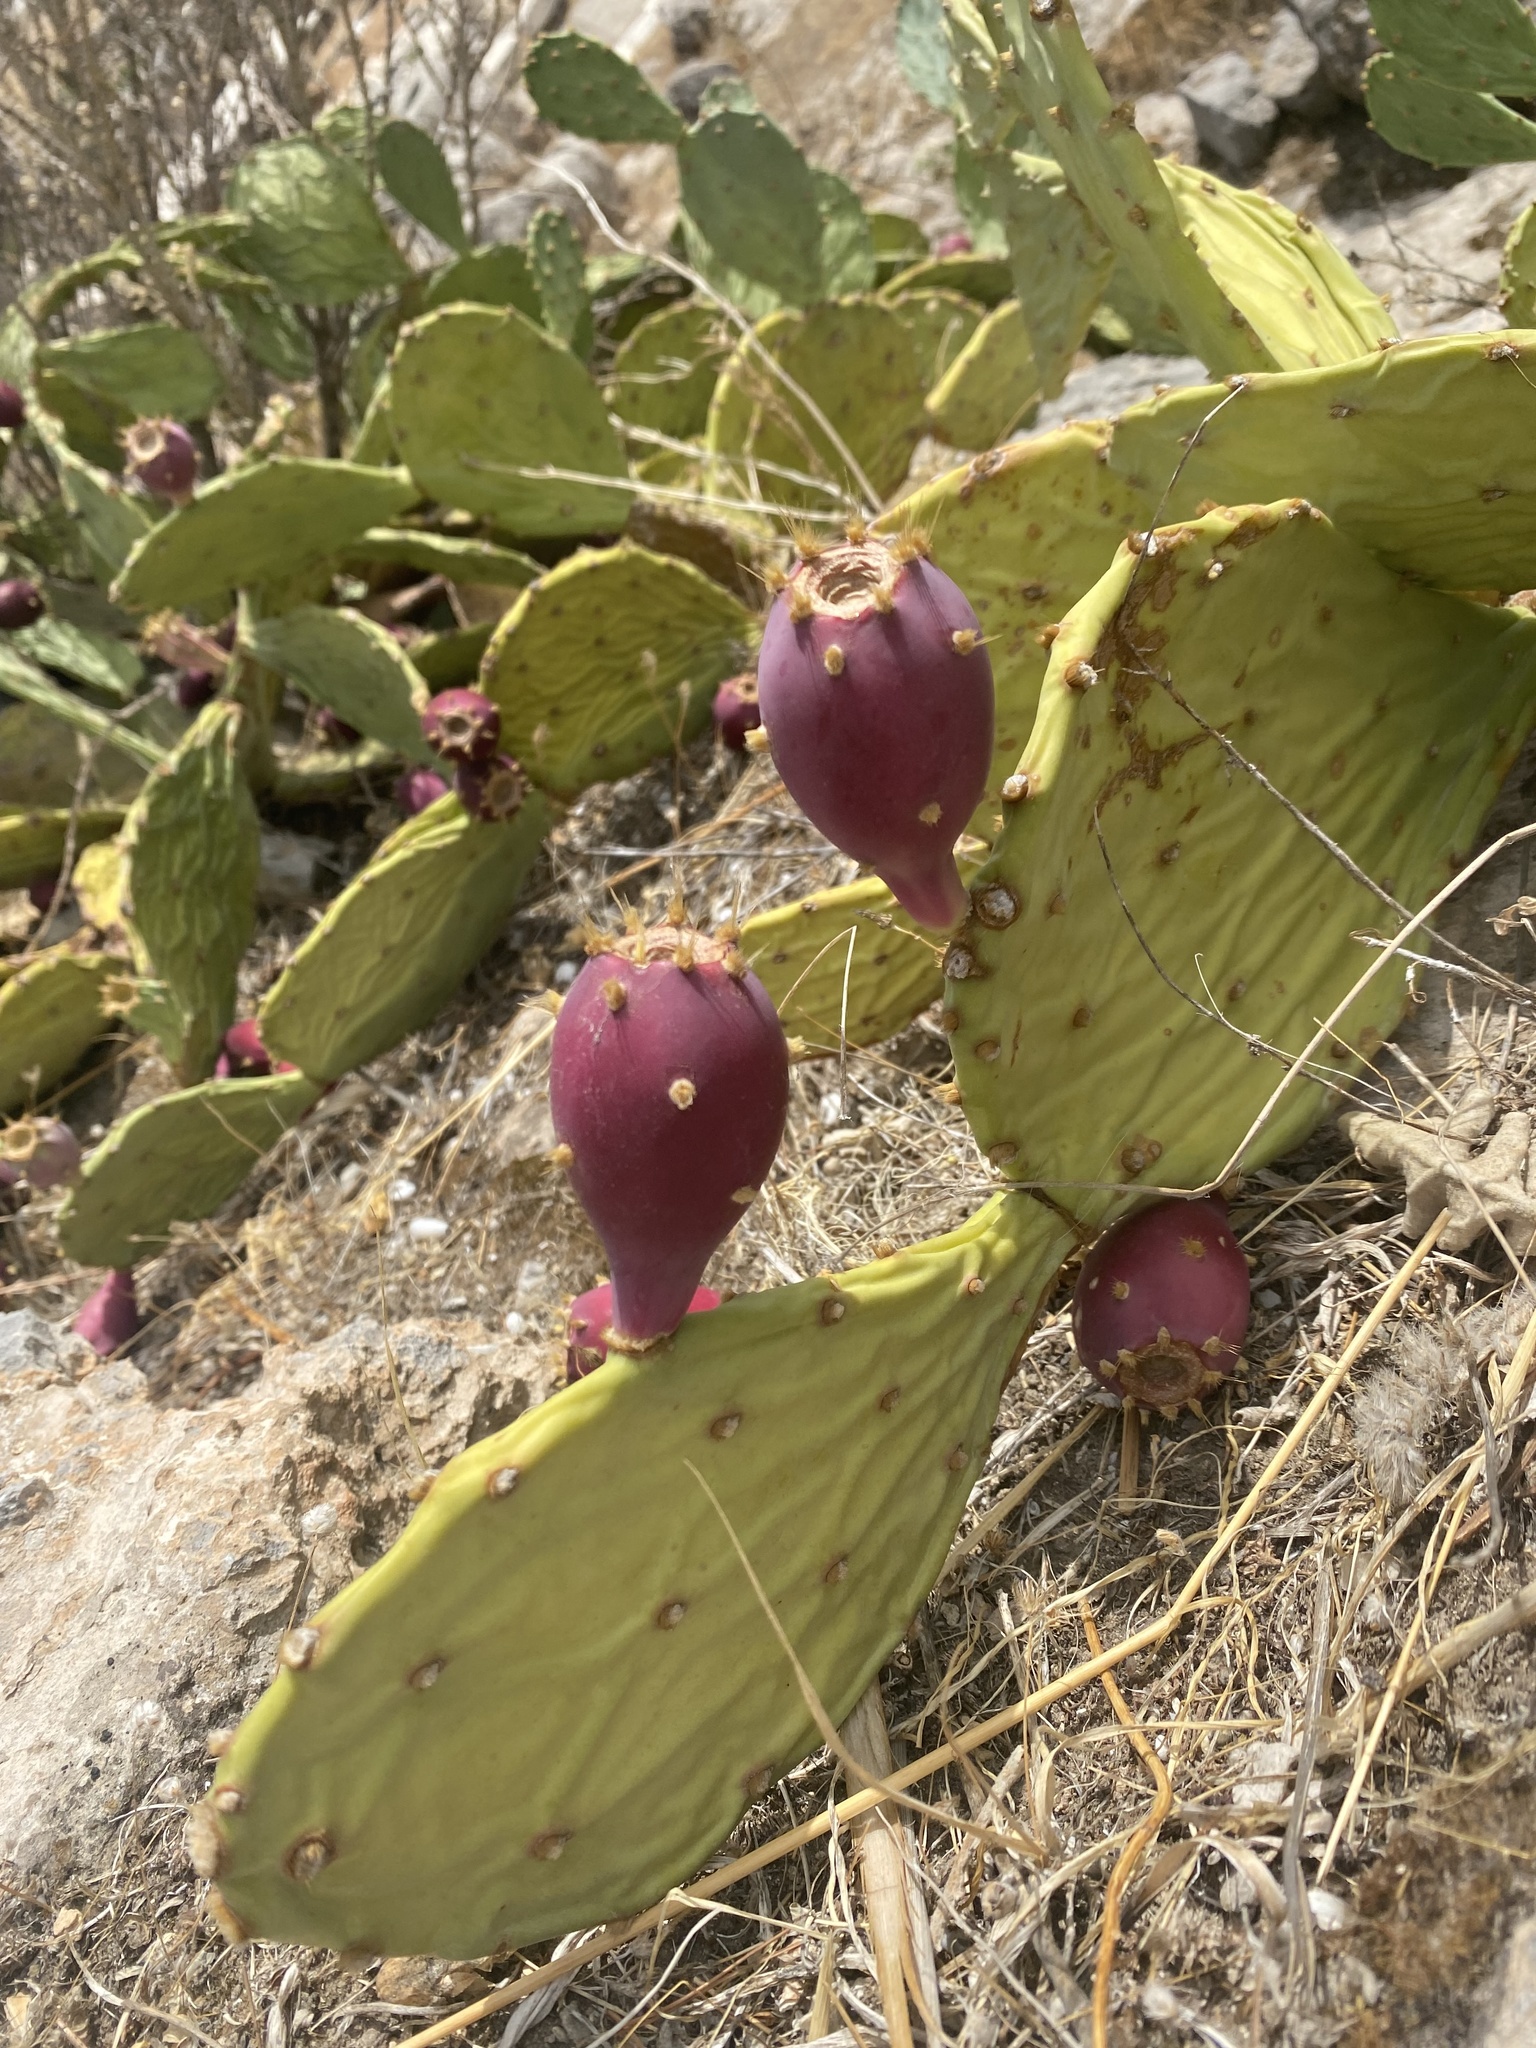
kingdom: Plantae
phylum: Tracheophyta
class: Magnoliopsida
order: Caryophyllales
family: Cactaceae
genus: Opuntia
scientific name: Opuntia anahuacensis
